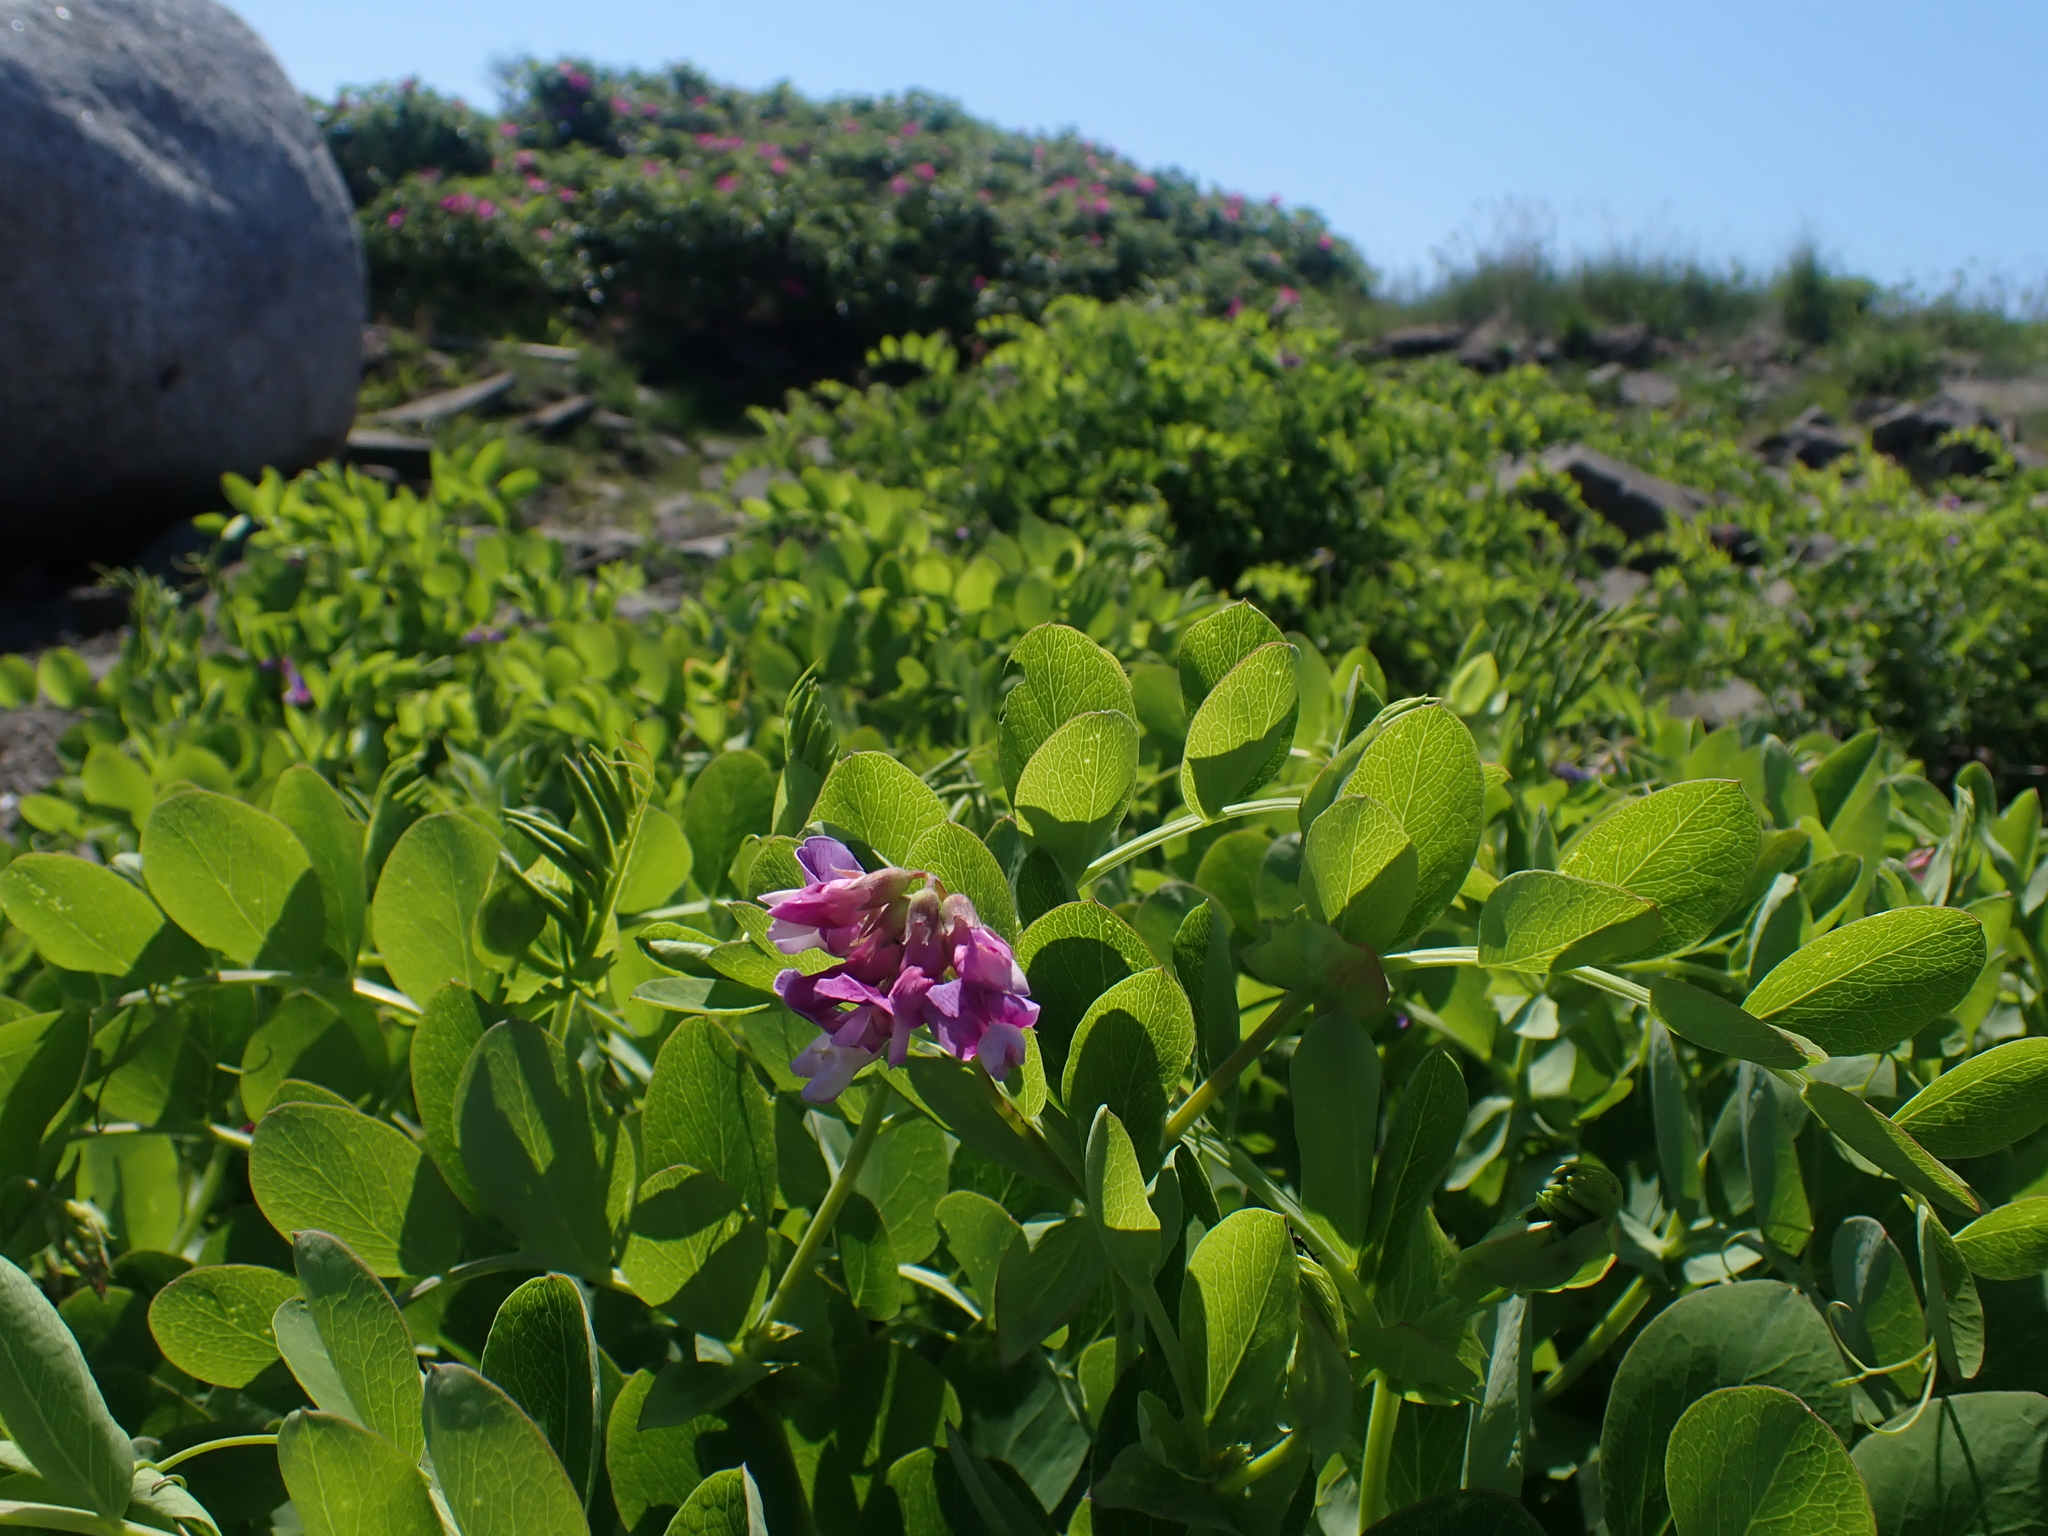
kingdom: Plantae
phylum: Tracheophyta
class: Magnoliopsida
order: Fabales
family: Fabaceae
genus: Lathyrus
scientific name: Lathyrus japonicus
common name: Sea pea
